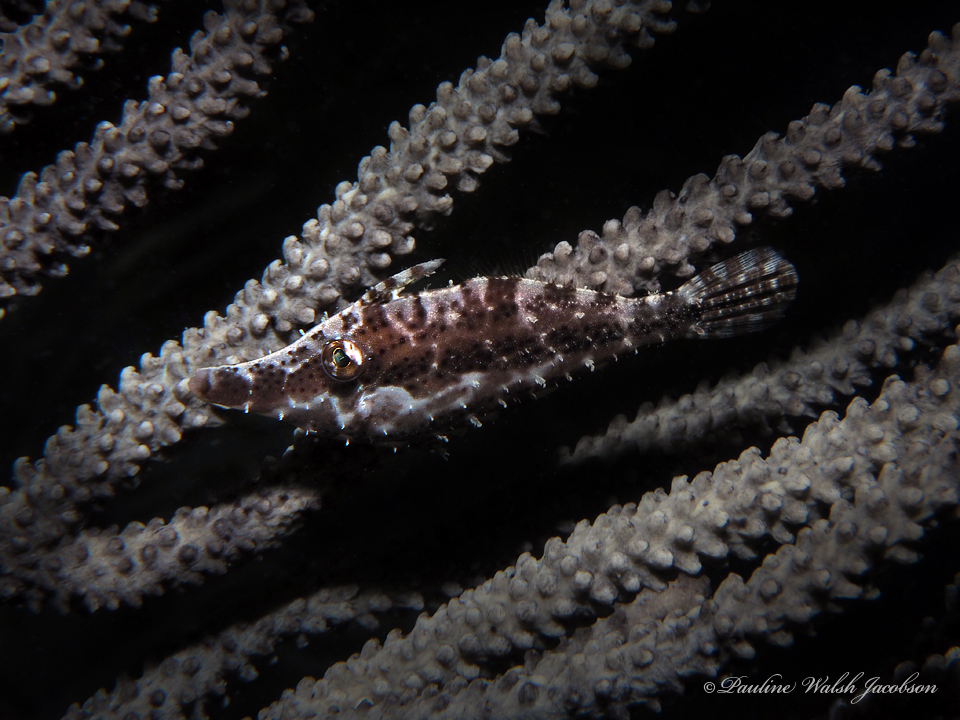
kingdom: Animalia
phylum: Chordata
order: Tetraodontiformes
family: Monacanthidae
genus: Monacanthus
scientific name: Monacanthus tuckeri
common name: Slender filefish
